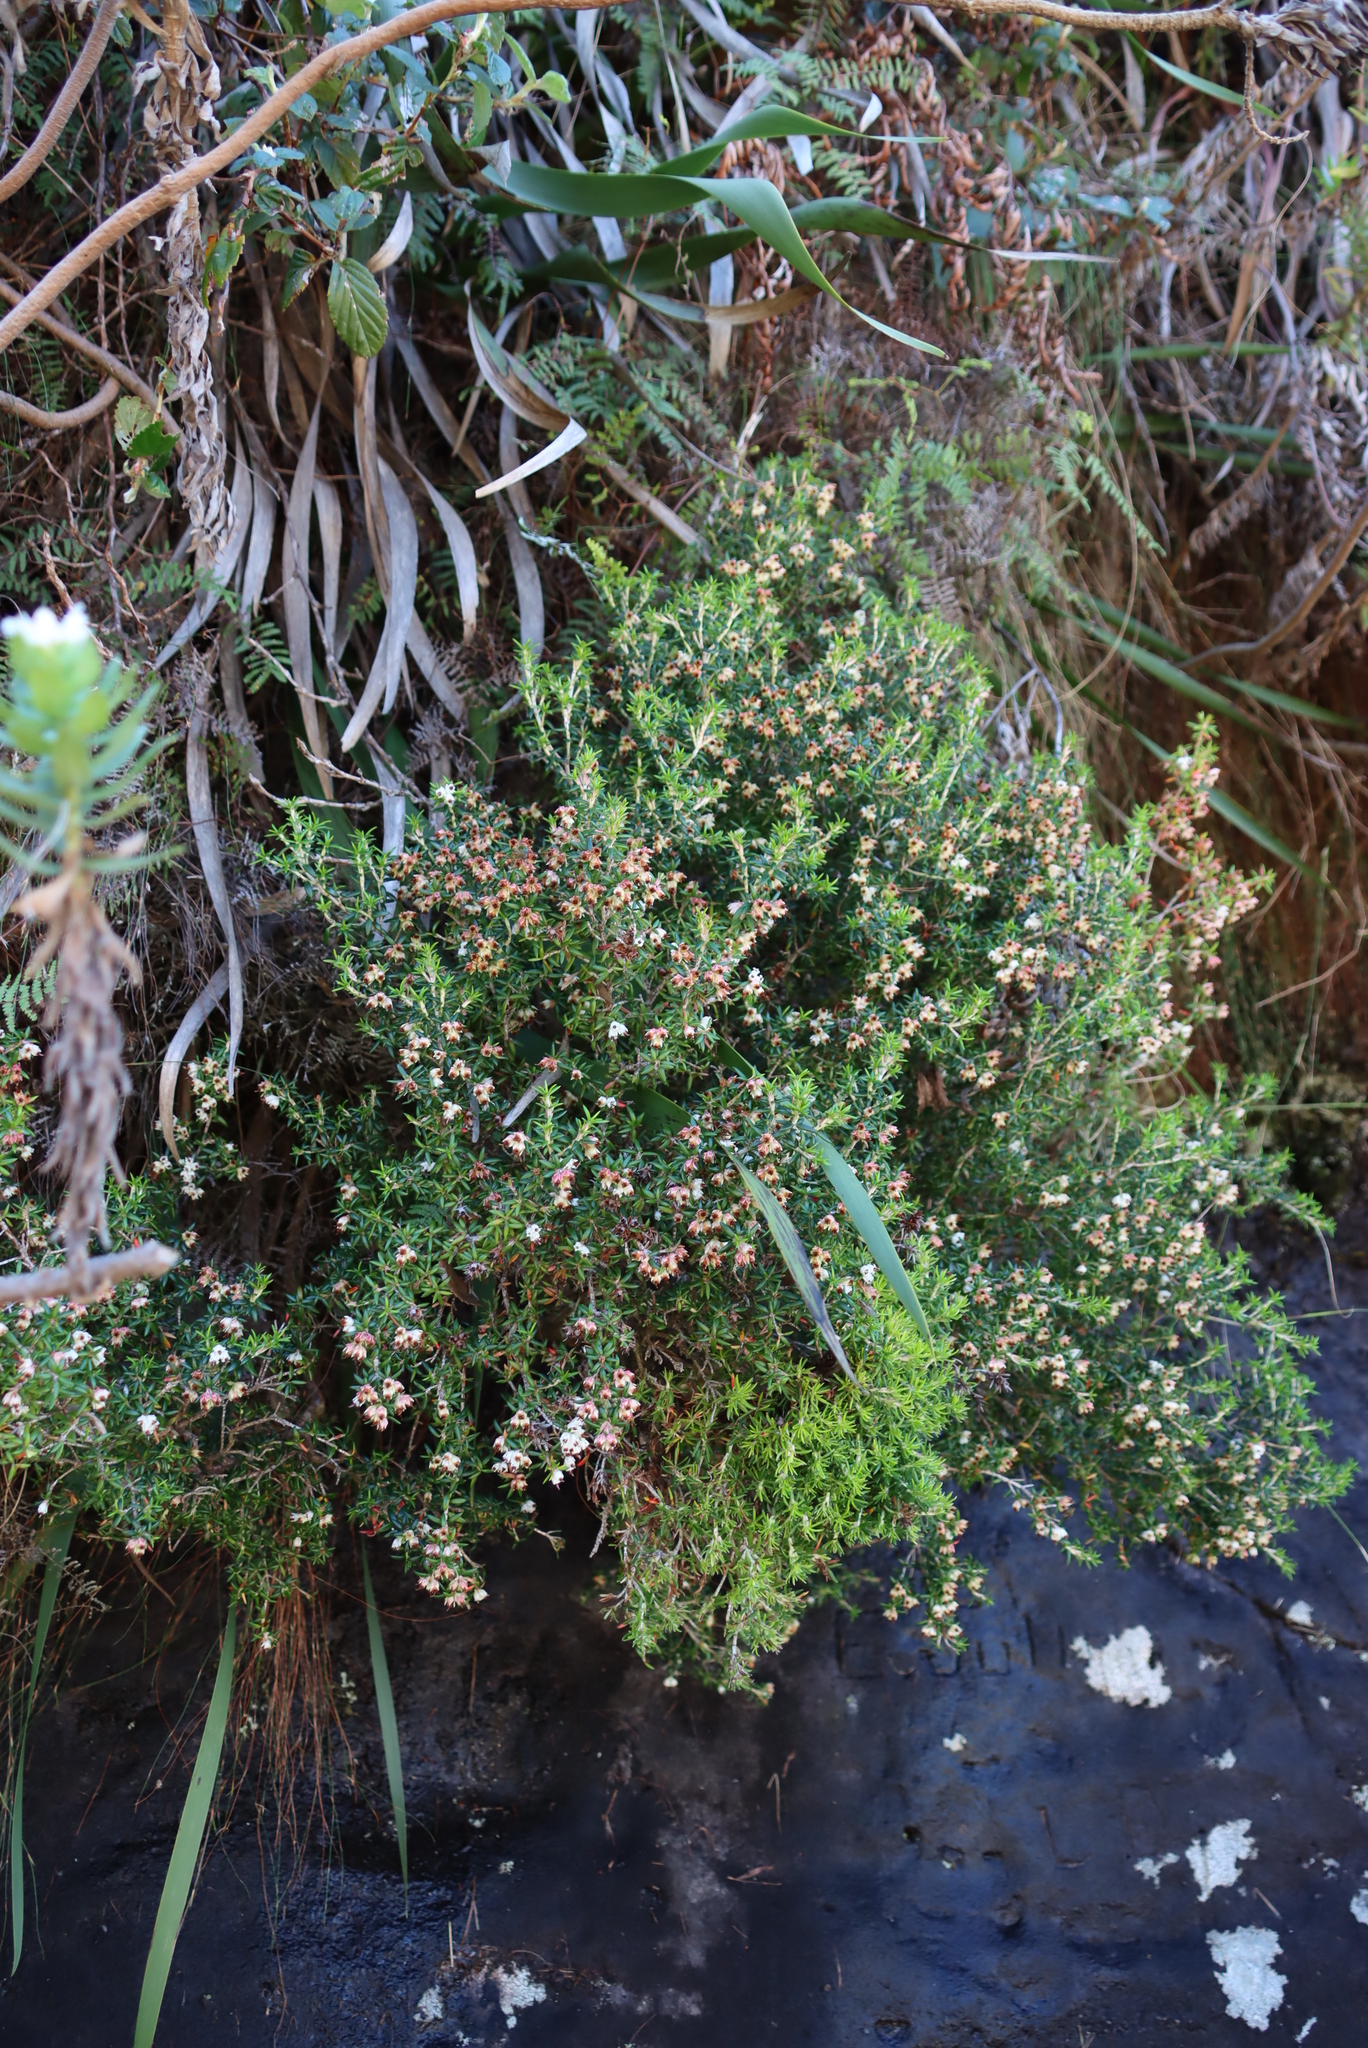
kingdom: Plantae
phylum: Tracheophyta
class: Magnoliopsida
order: Ericales
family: Ericaceae
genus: Erica
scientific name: Erica petiolaris
